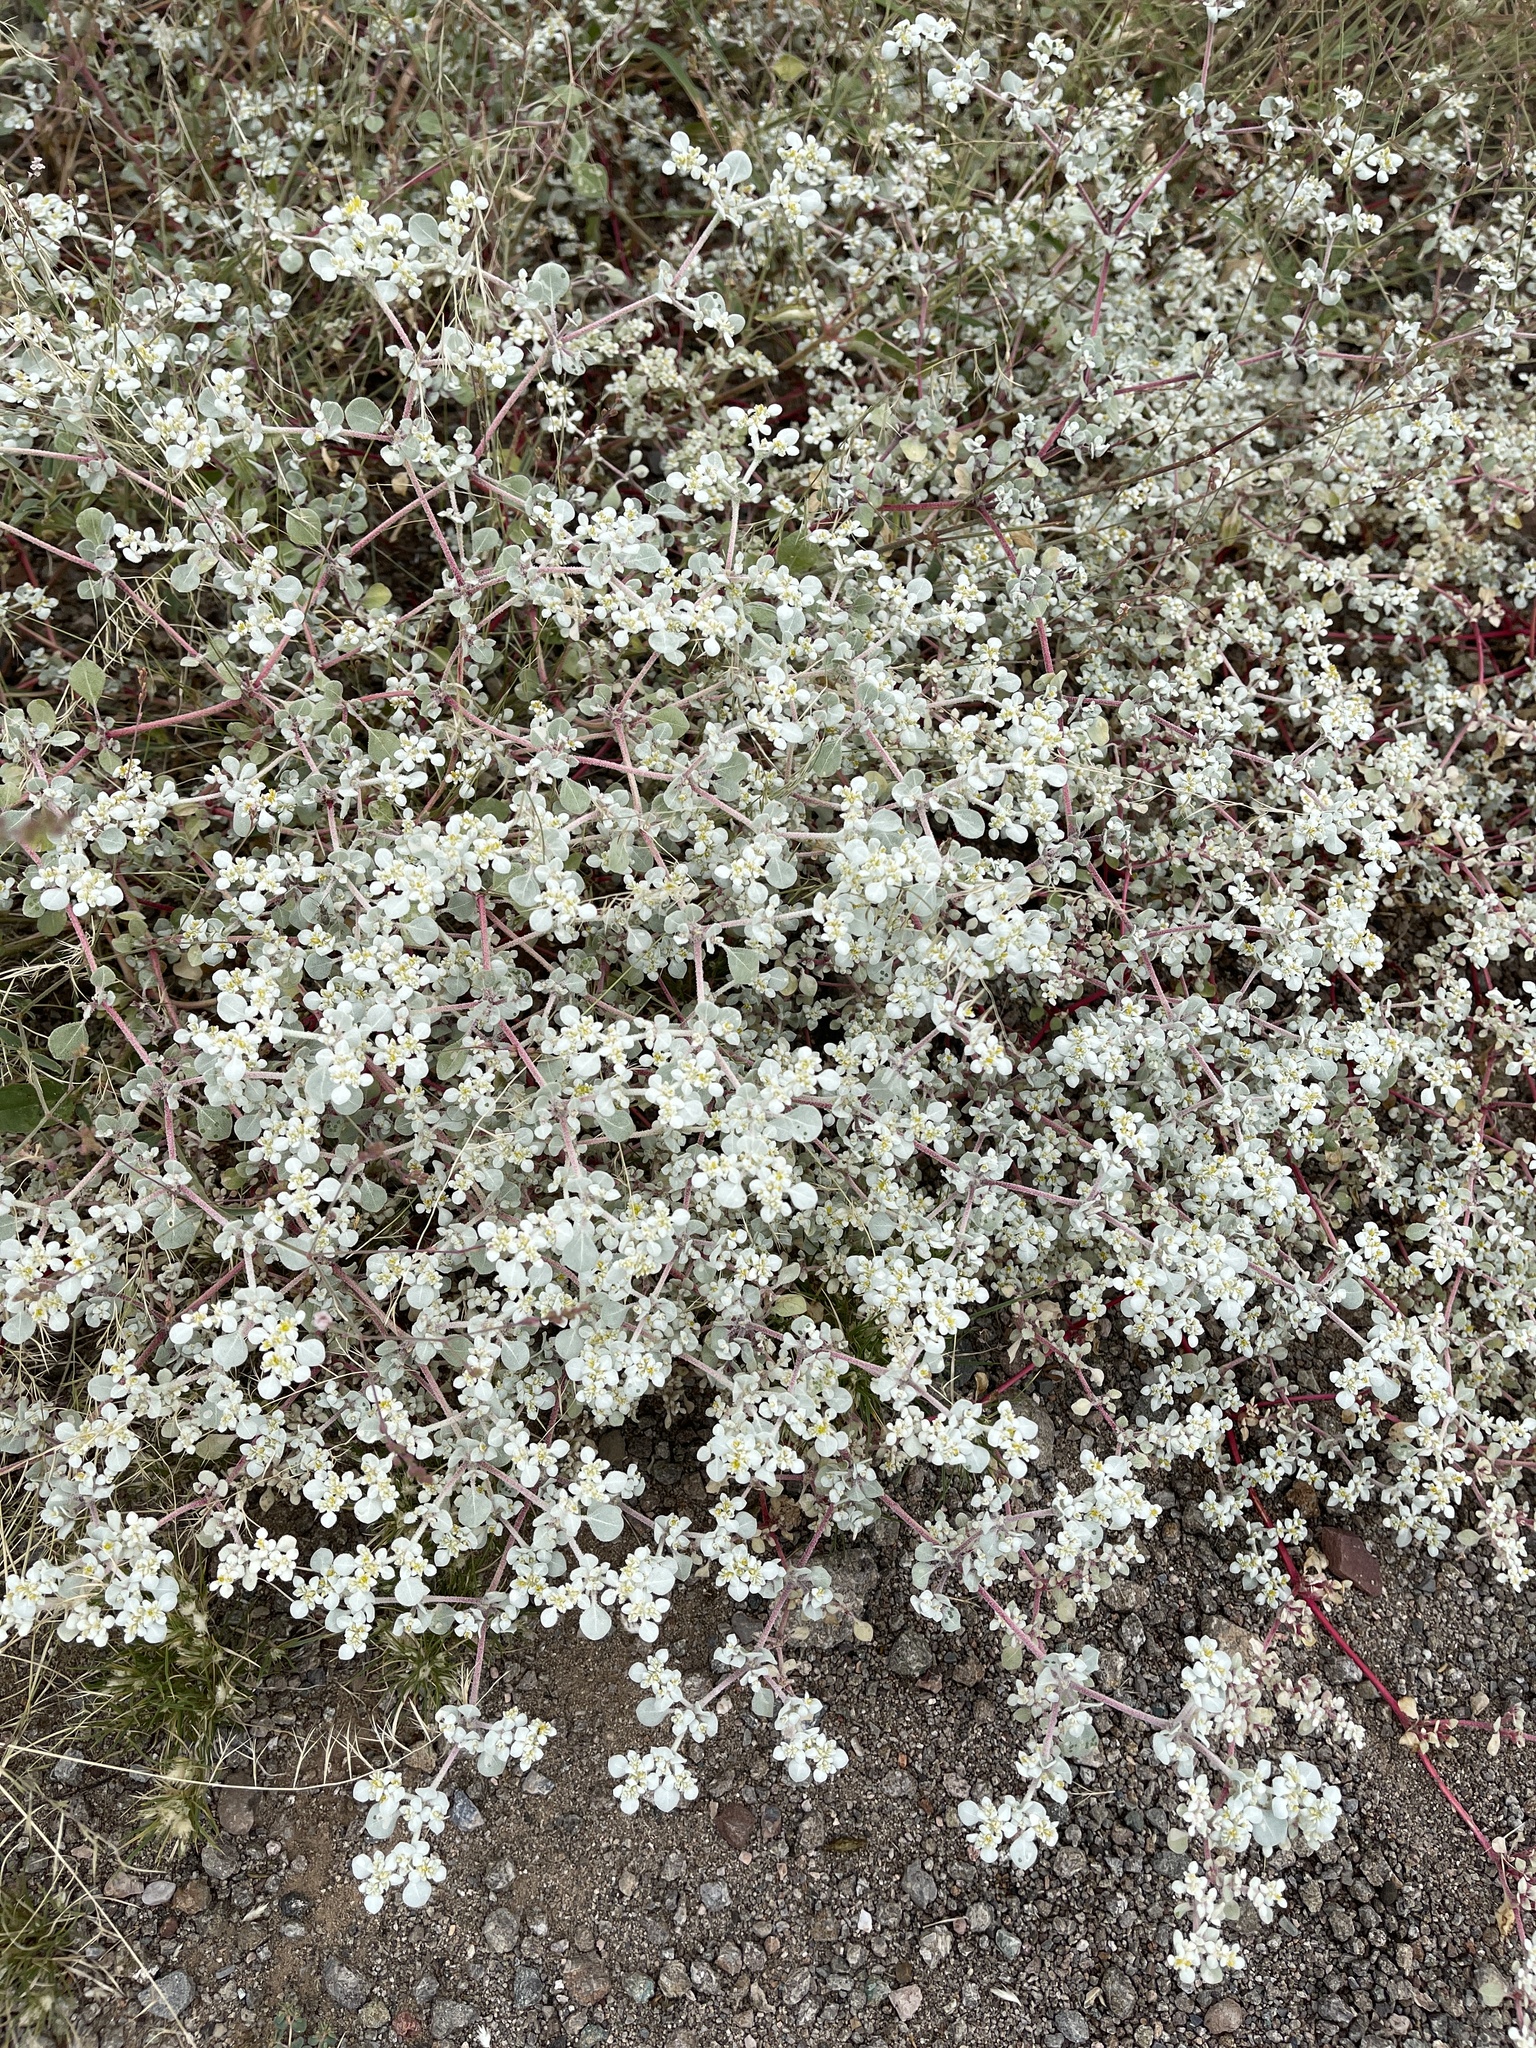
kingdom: Plantae
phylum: Tracheophyta
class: Magnoliopsida
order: Caryophyllales
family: Amaranthaceae
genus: Tidestromia
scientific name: Tidestromia lanuginosa
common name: Woolly tidestromia
